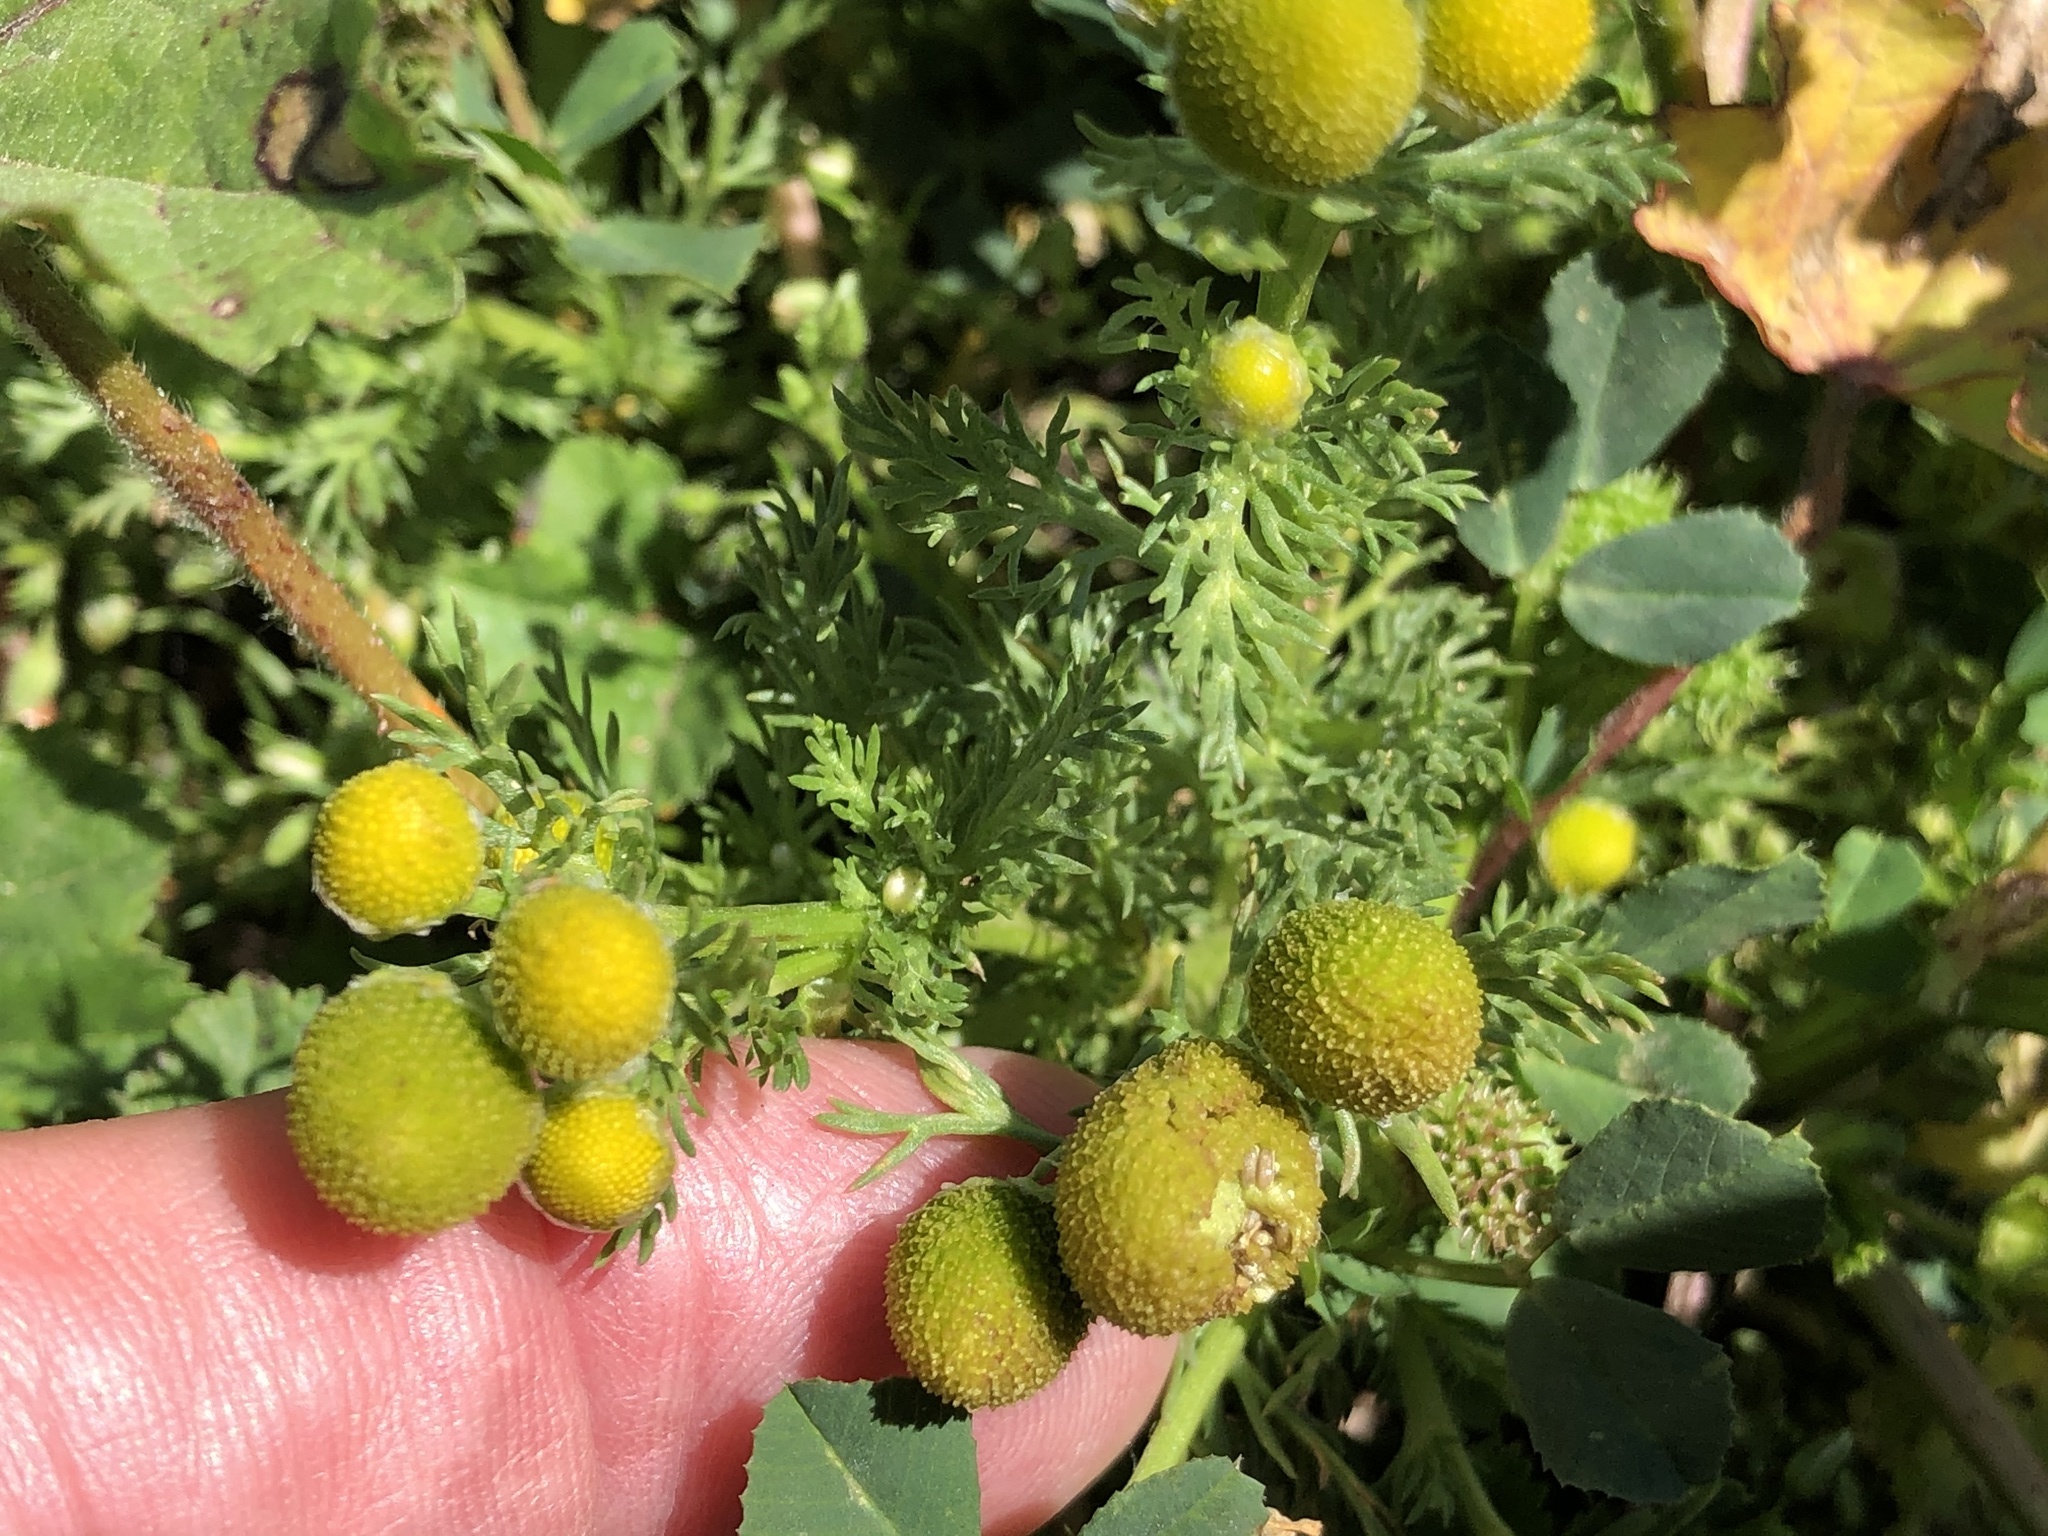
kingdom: Plantae
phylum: Tracheophyta
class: Magnoliopsida
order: Asterales
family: Asteraceae
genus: Matricaria
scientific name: Matricaria discoidea
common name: Disc mayweed
